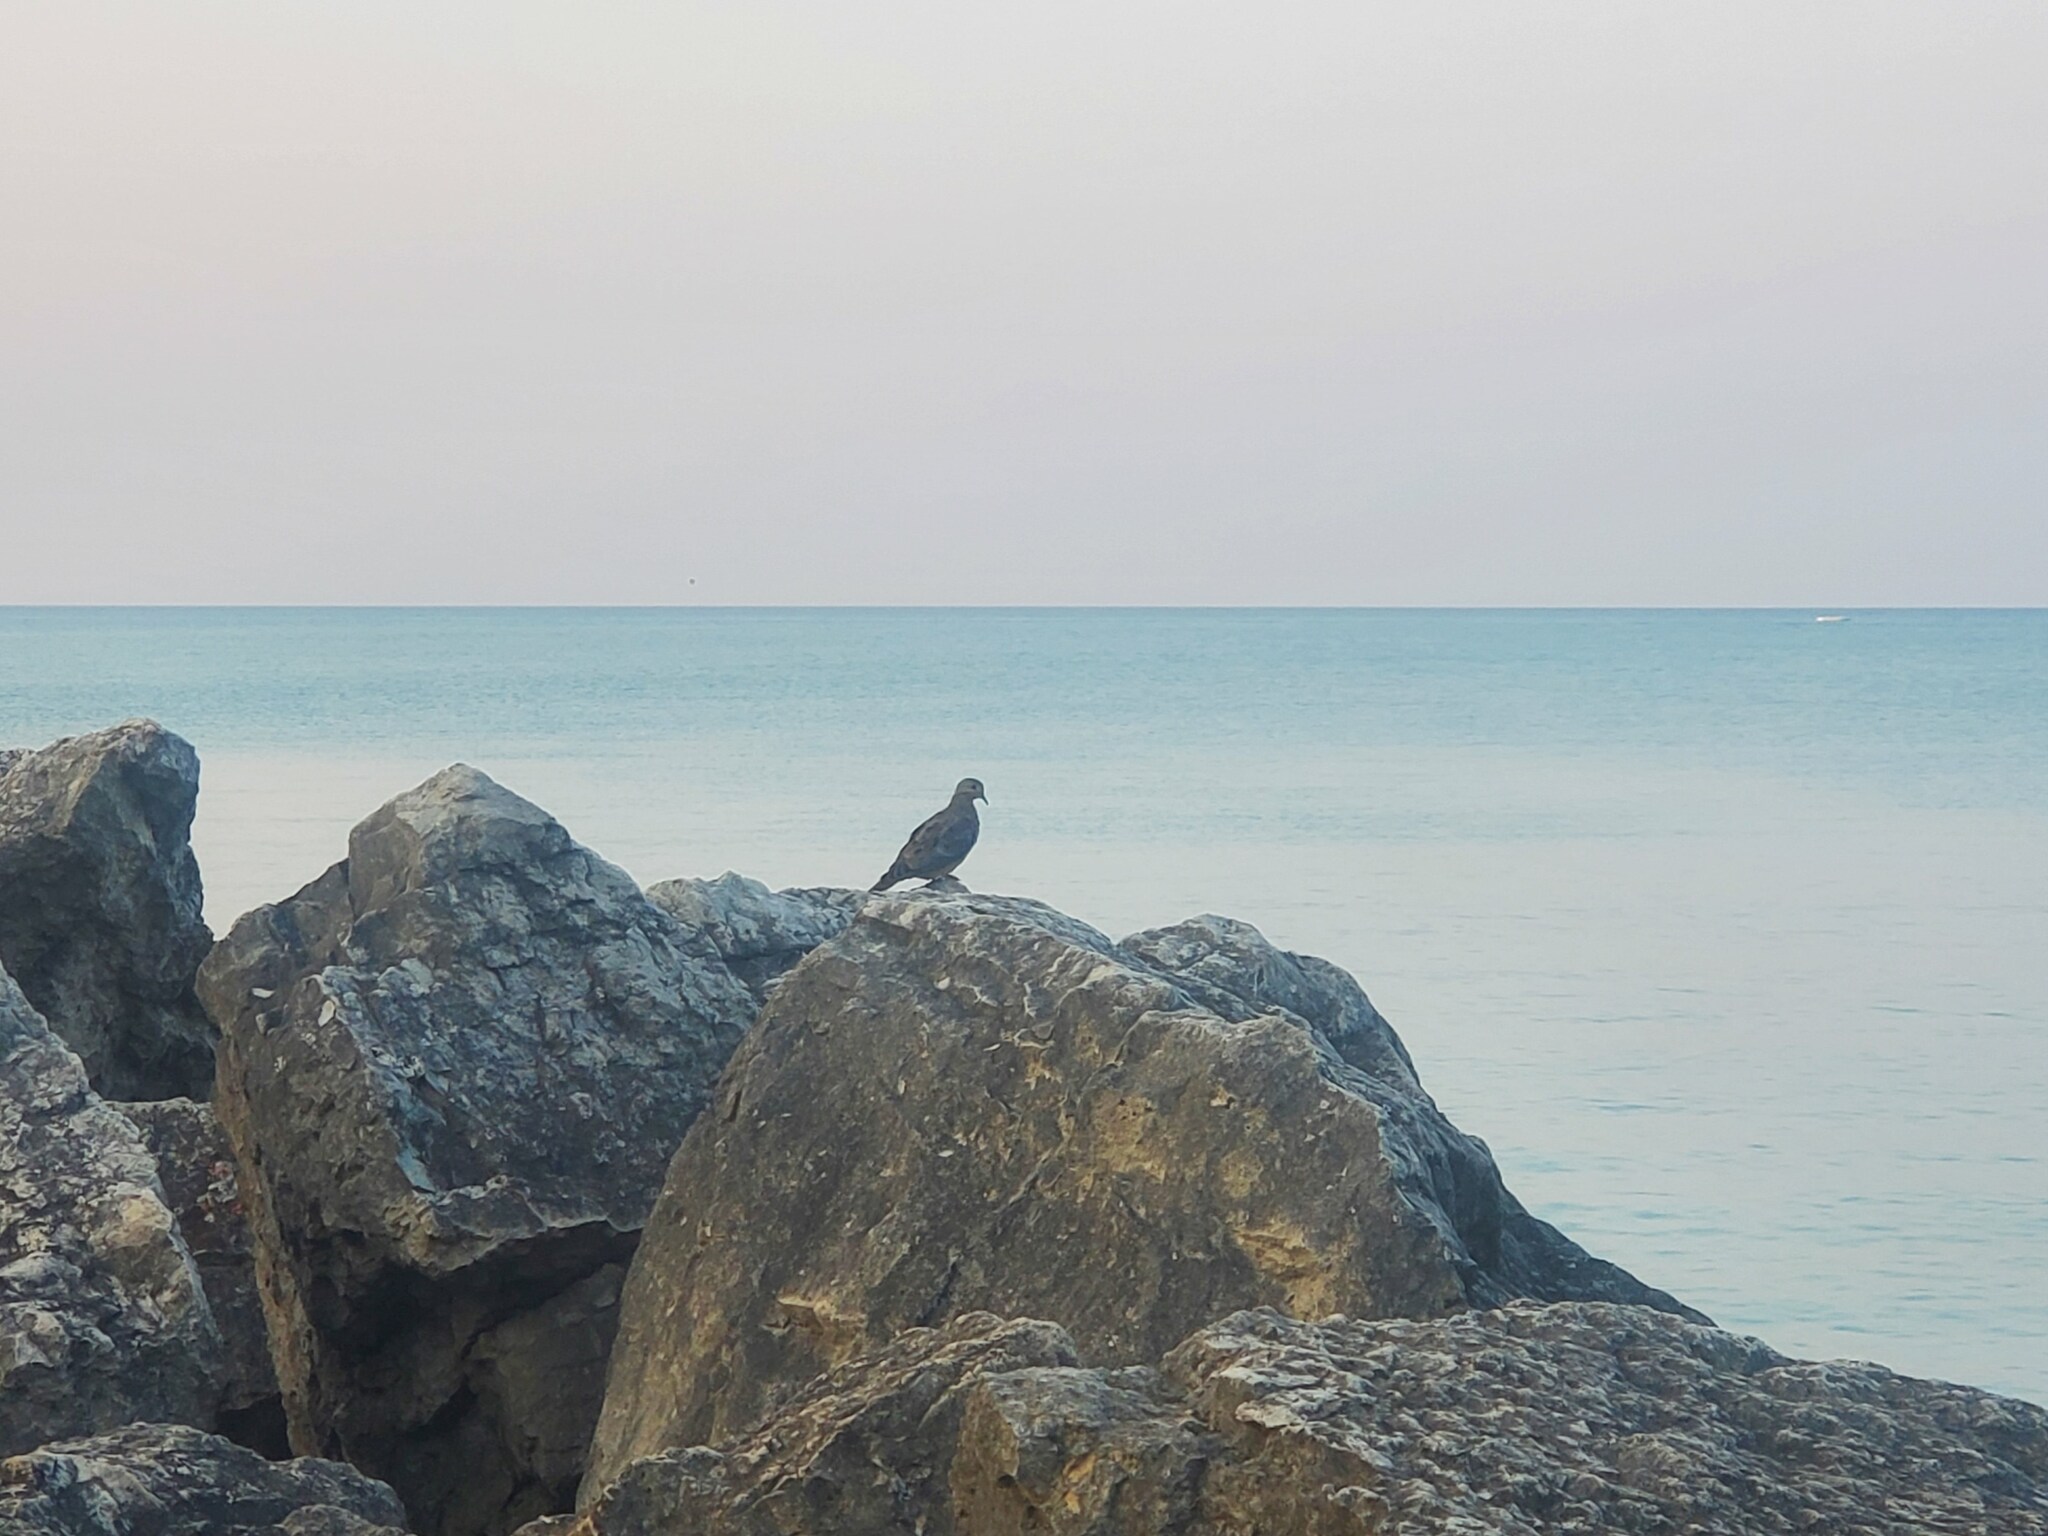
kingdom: Animalia
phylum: Chordata
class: Aves
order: Columbiformes
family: Columbidae
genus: Zenaida
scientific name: Zenaida macroura
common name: Mourning dove
